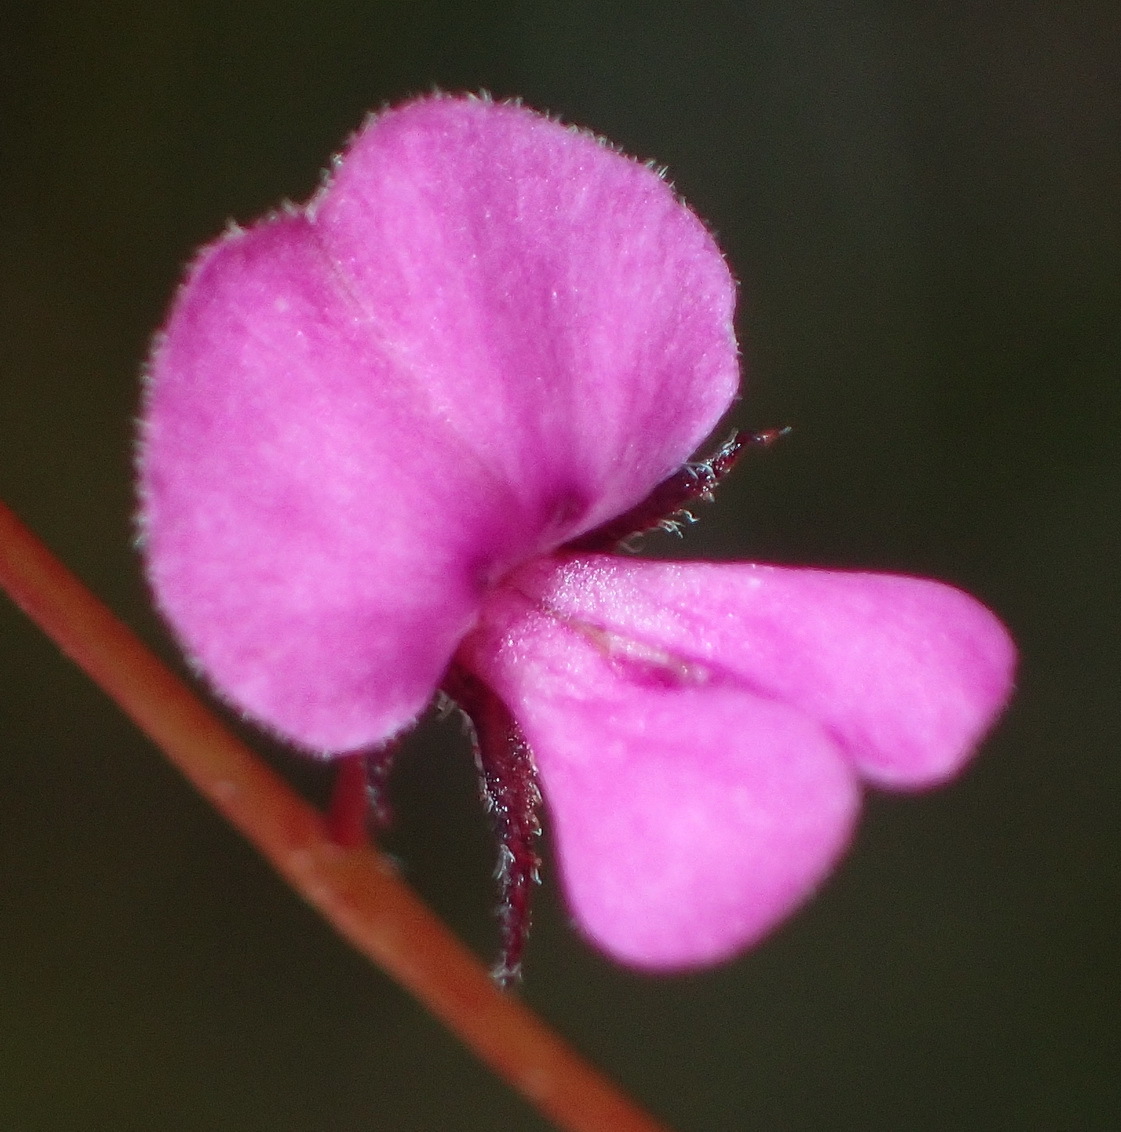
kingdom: Plantae
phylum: Tracheophyta
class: Magnoliopsida
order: Fabales
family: Fabaceae
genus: Indigofera
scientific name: Indigofera
